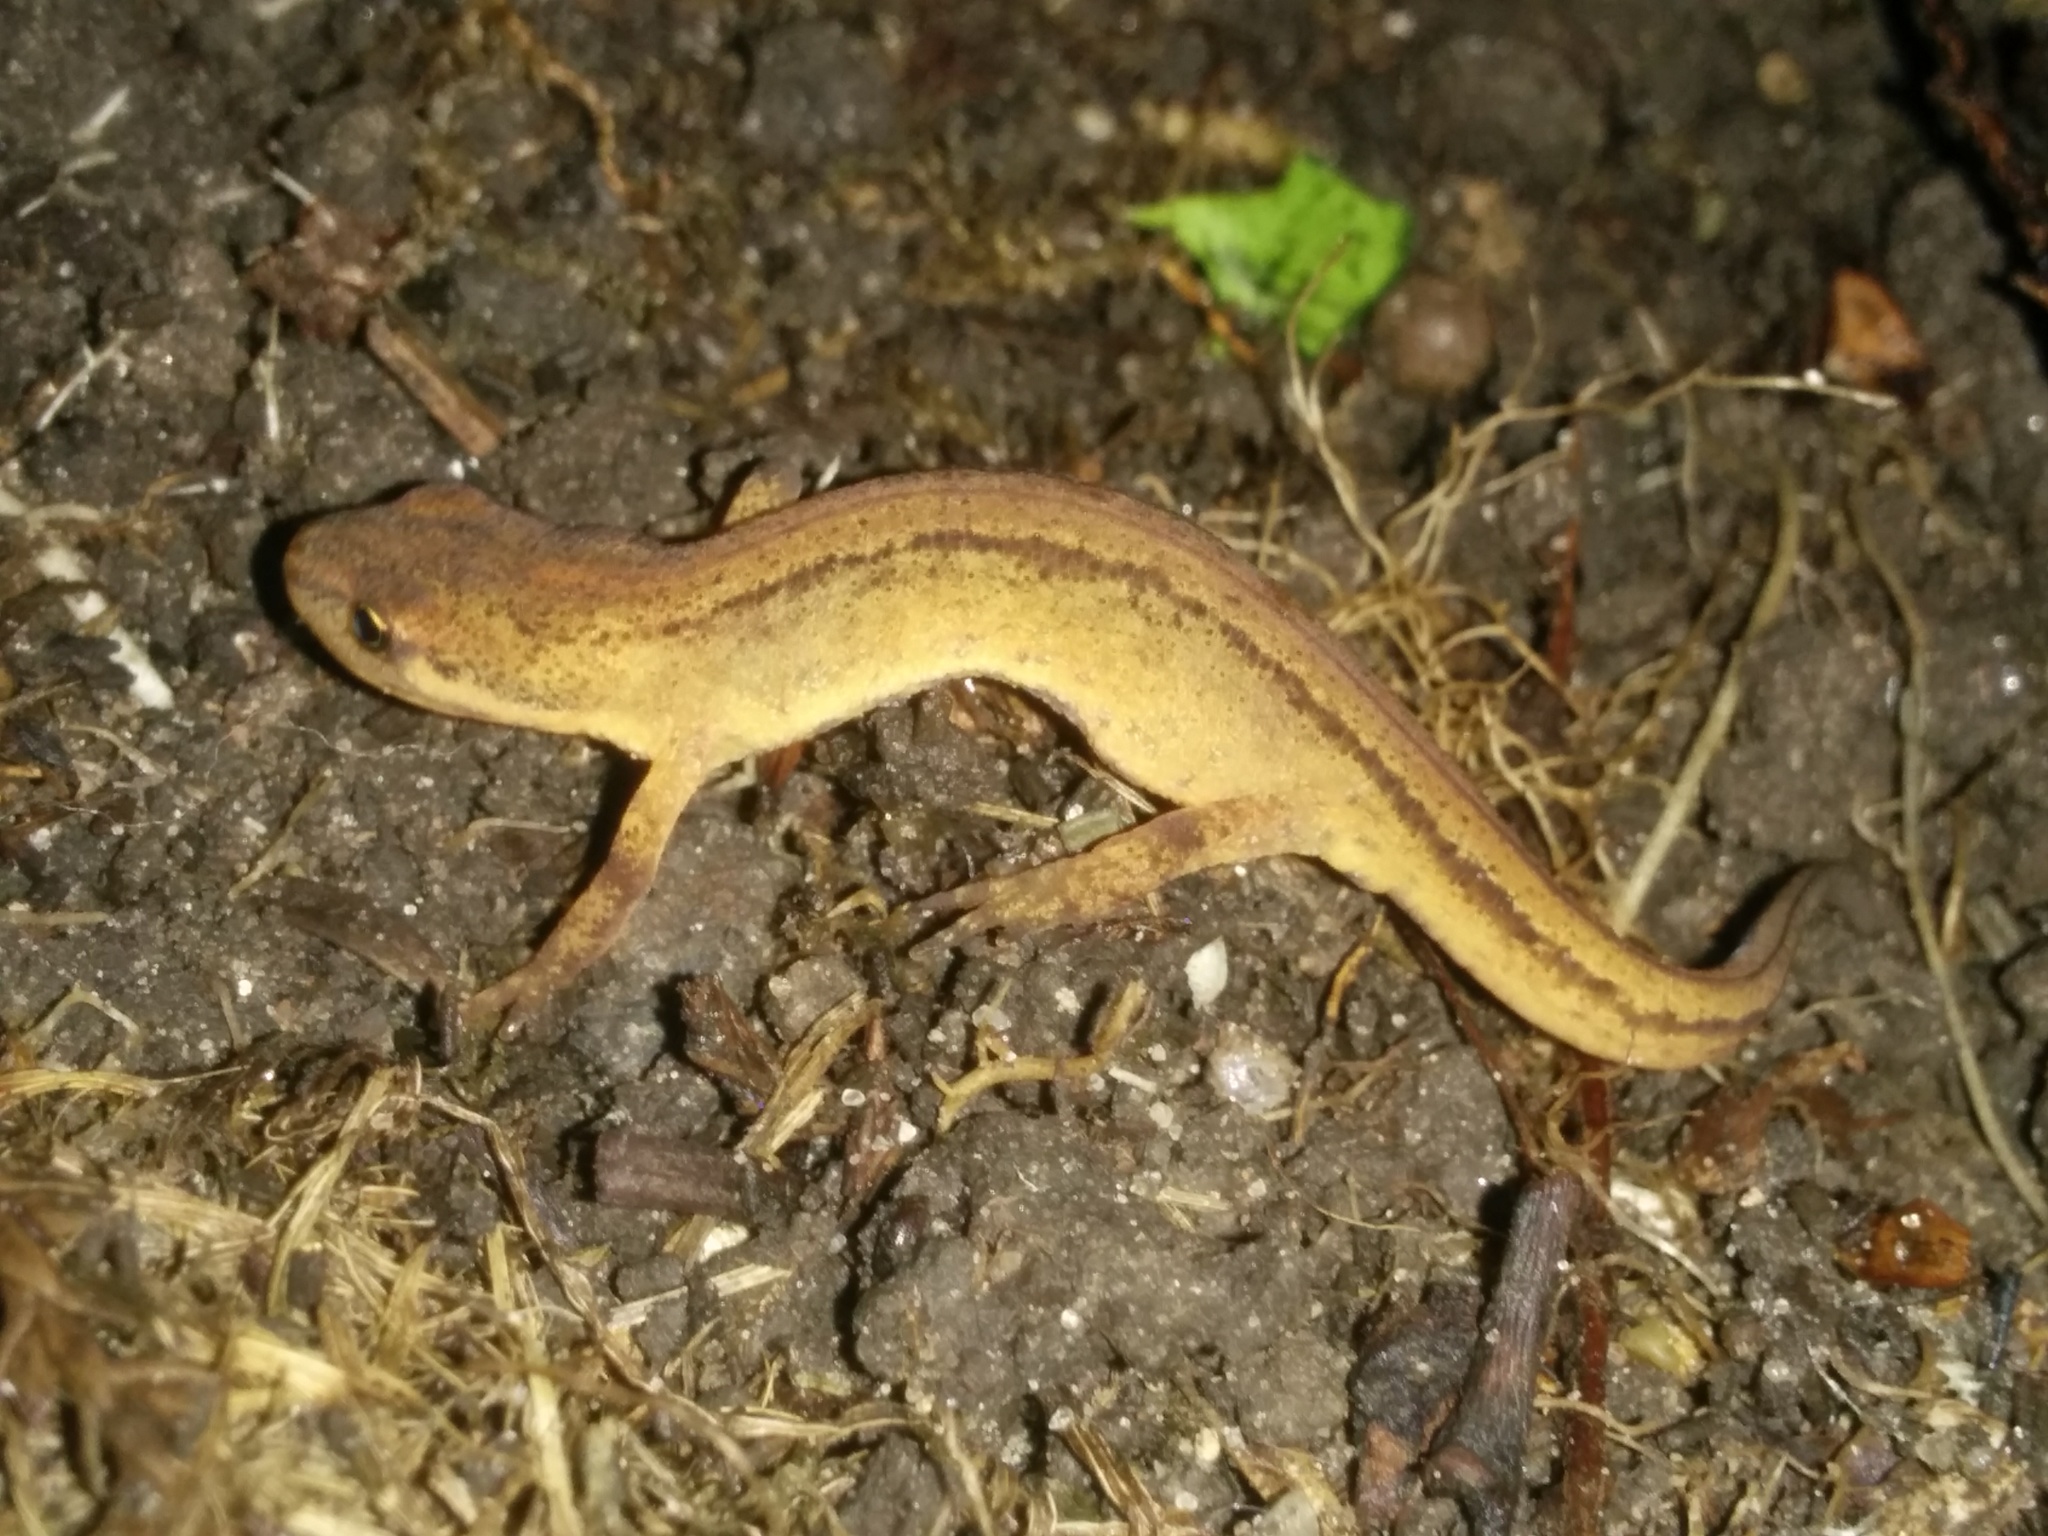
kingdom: Animalia
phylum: Chordata
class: Amphibia
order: Caudata
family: Salamandridae
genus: Lissotriton
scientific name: Lissotriton vulgaris
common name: Smooth newt
